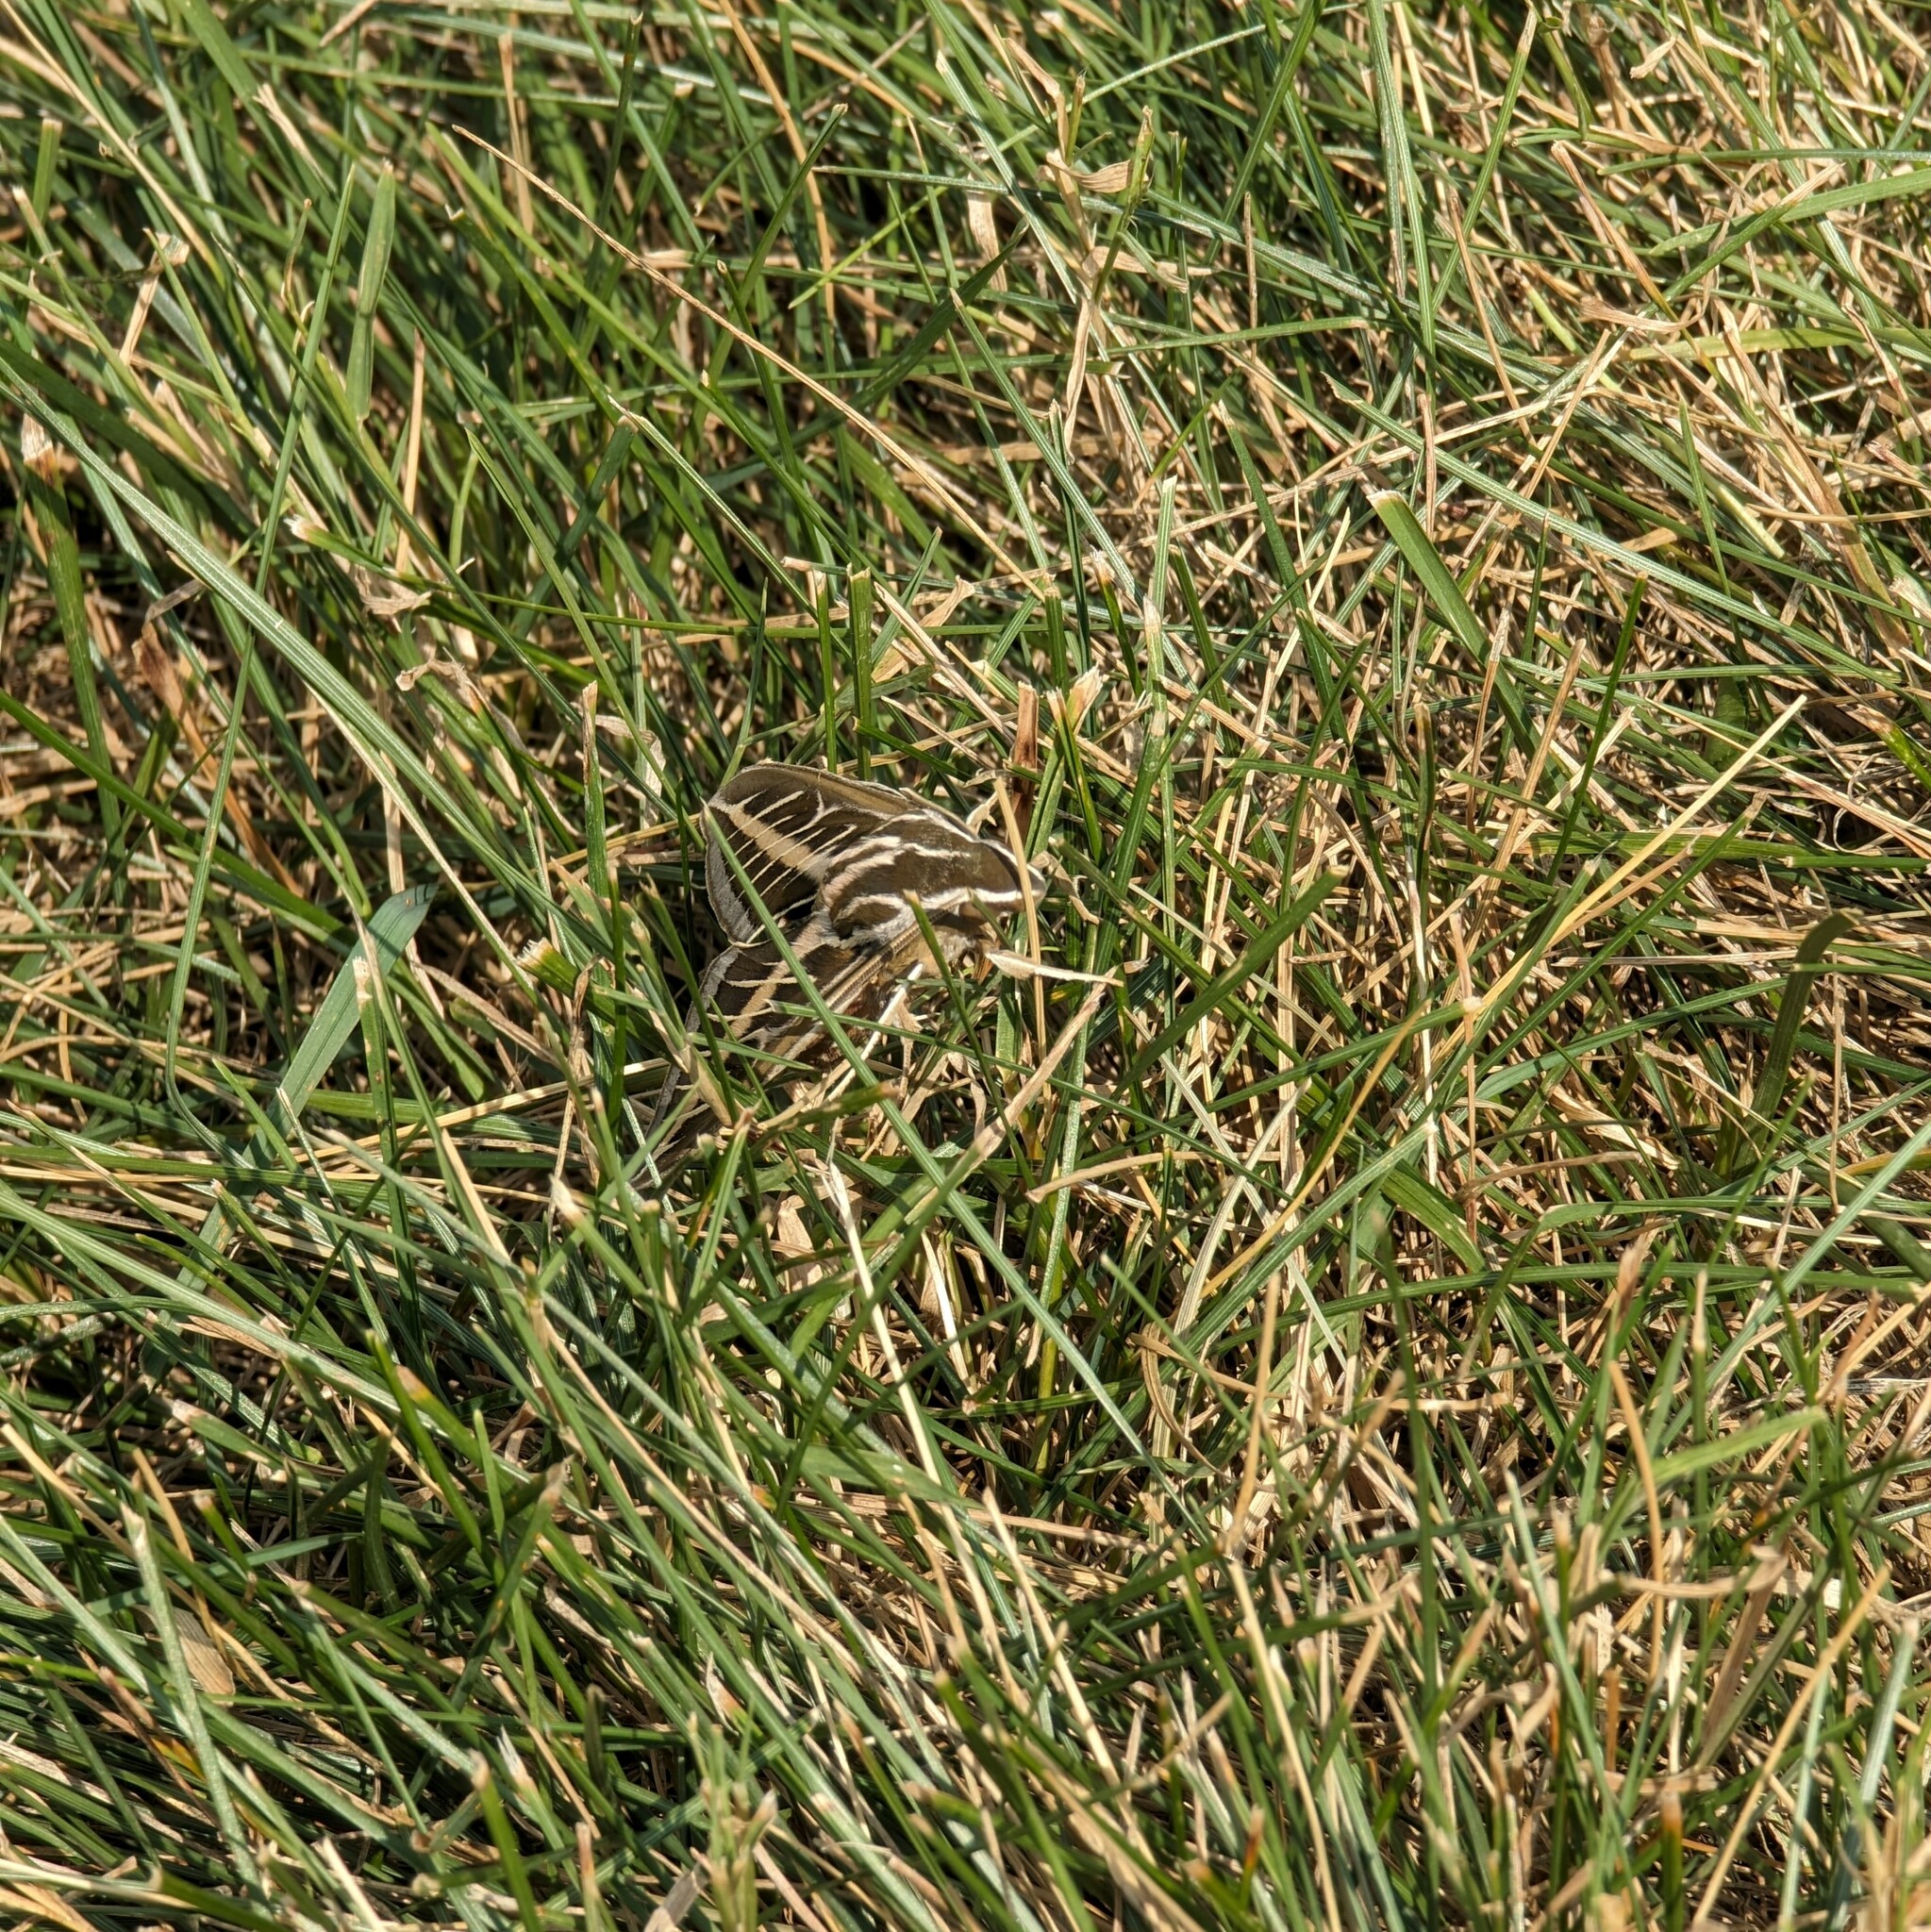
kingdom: Animalia
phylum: Arthropoda
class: Insecta
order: Lepidoptera
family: Sphingidae
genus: Hyles
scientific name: Hyles lineata
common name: White-lined sphinx
